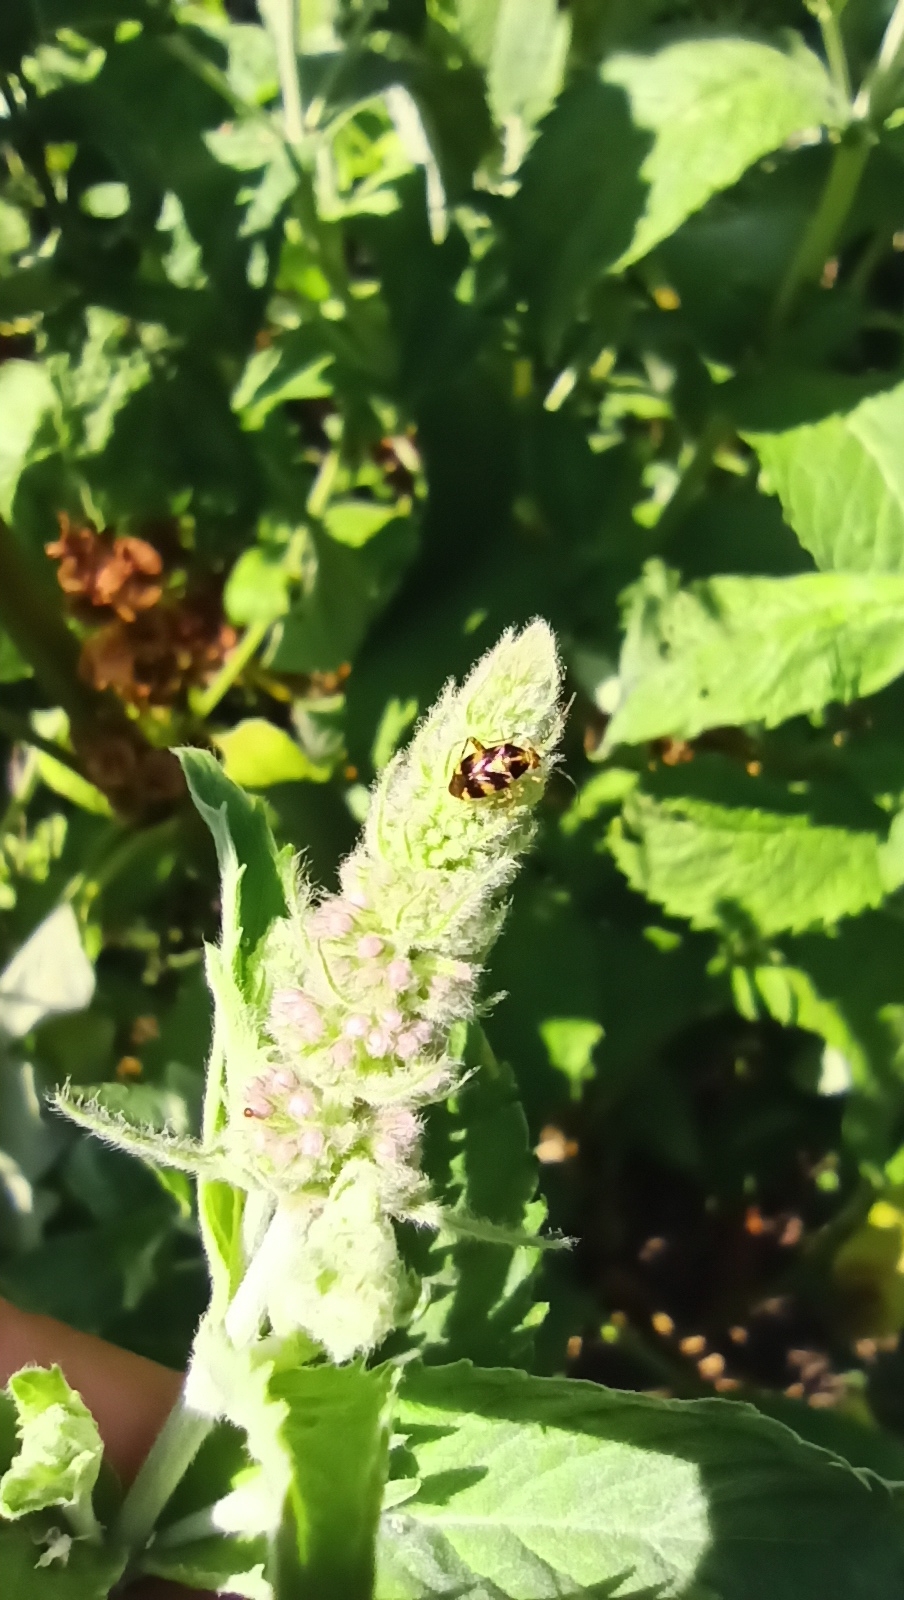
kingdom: Animalia
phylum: Arthropoda
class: Insecta
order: Hemiptera
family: Miridae
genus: Liocoris
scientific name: Liocoris tripustulatus
